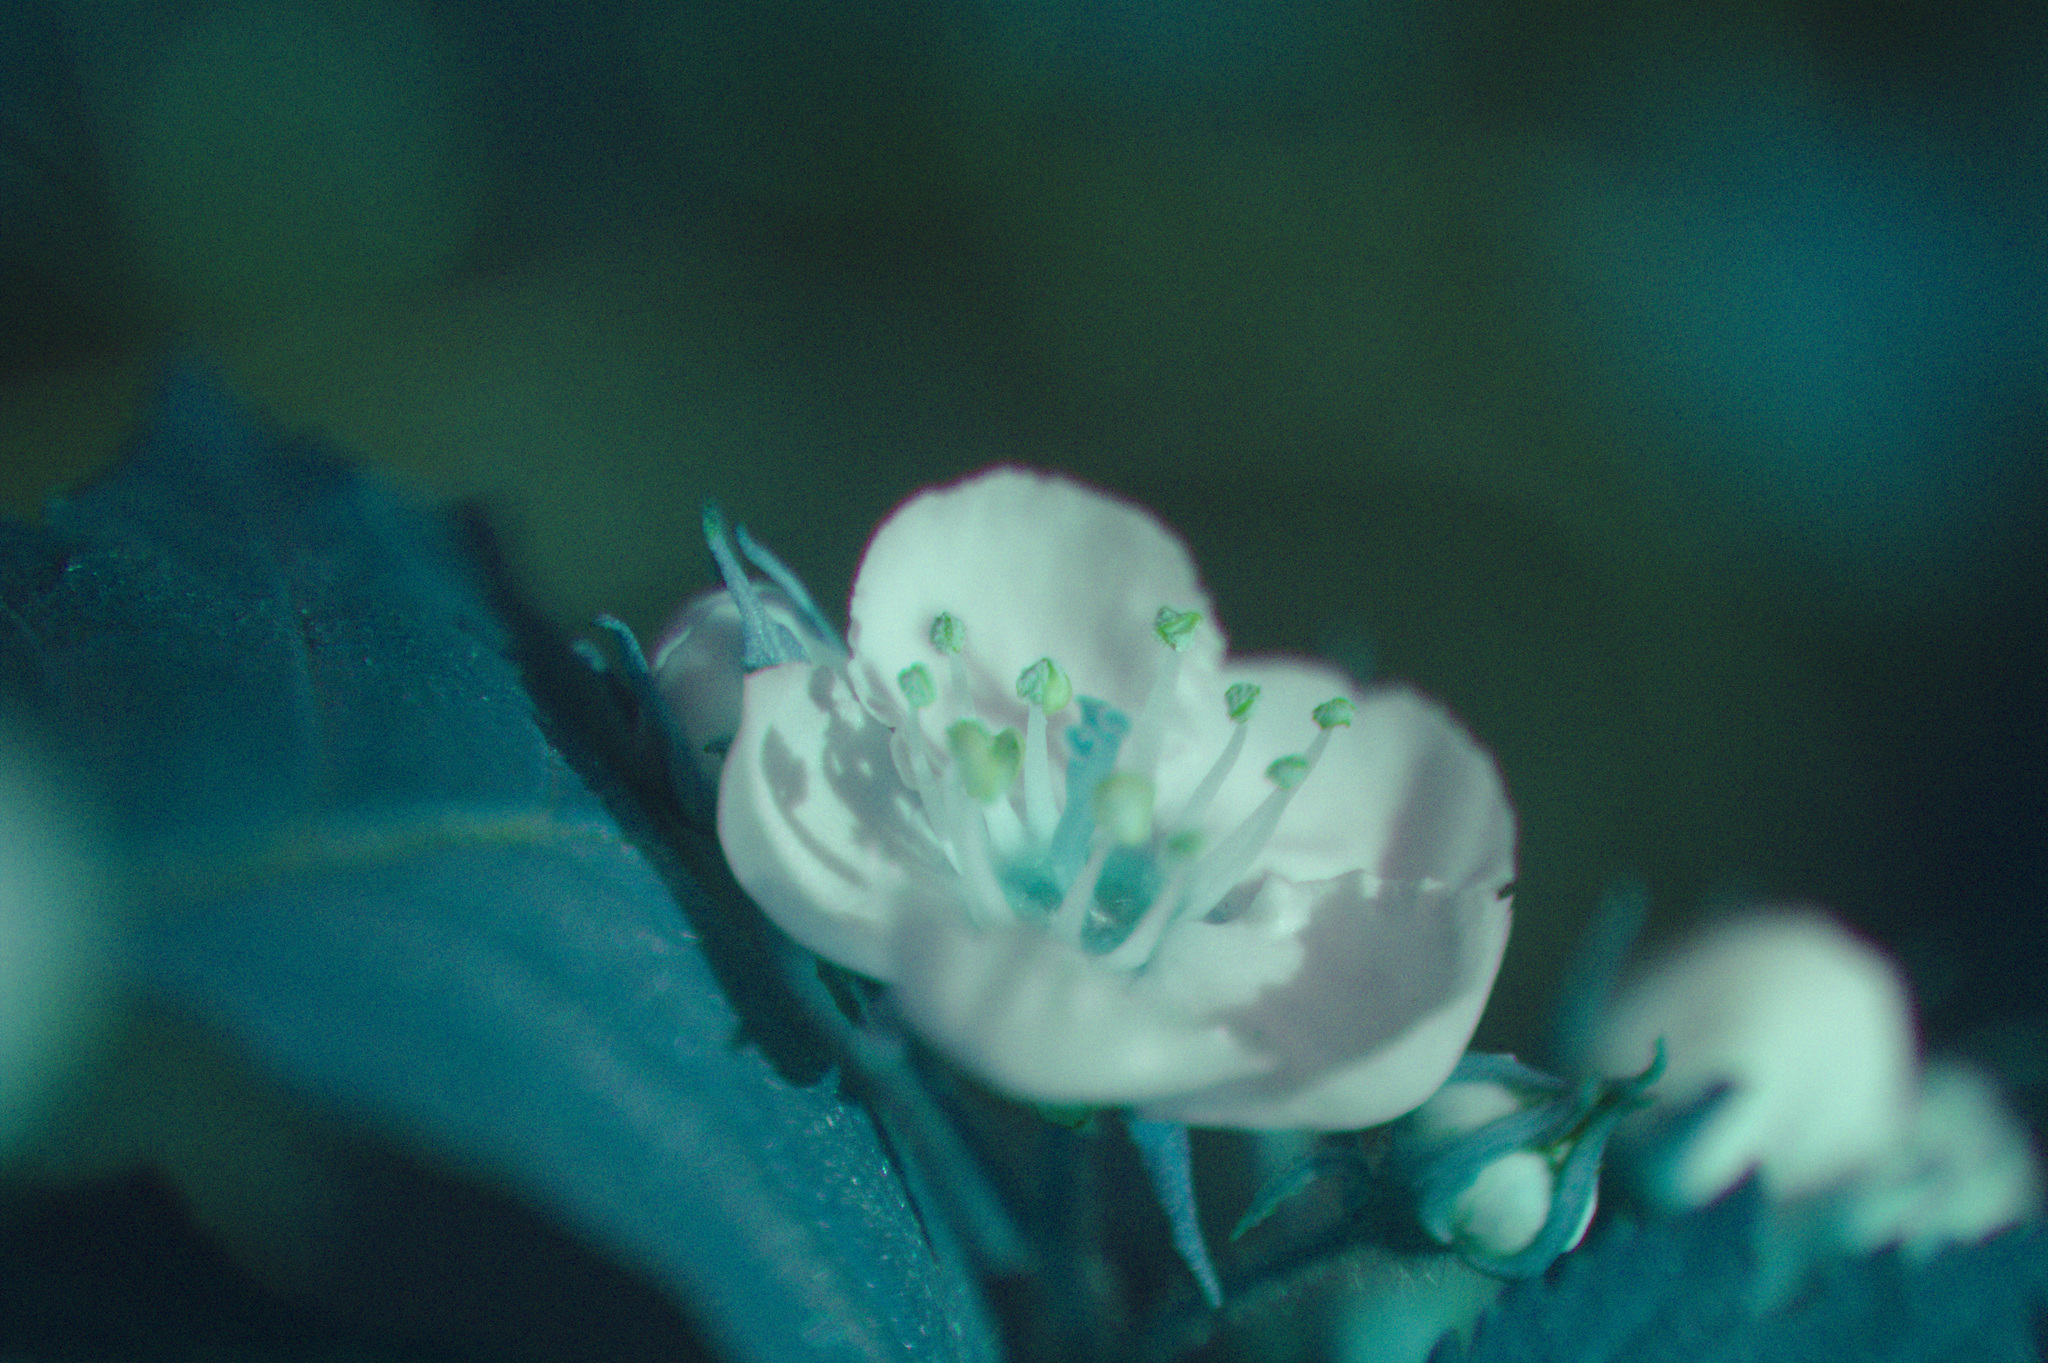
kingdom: Plantae
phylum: Tracheophyta
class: Magnoliopsida
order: Rosales
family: Rosaceae
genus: Crataegus
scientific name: Crataegus flabellata
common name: Bosc's hawthorn
